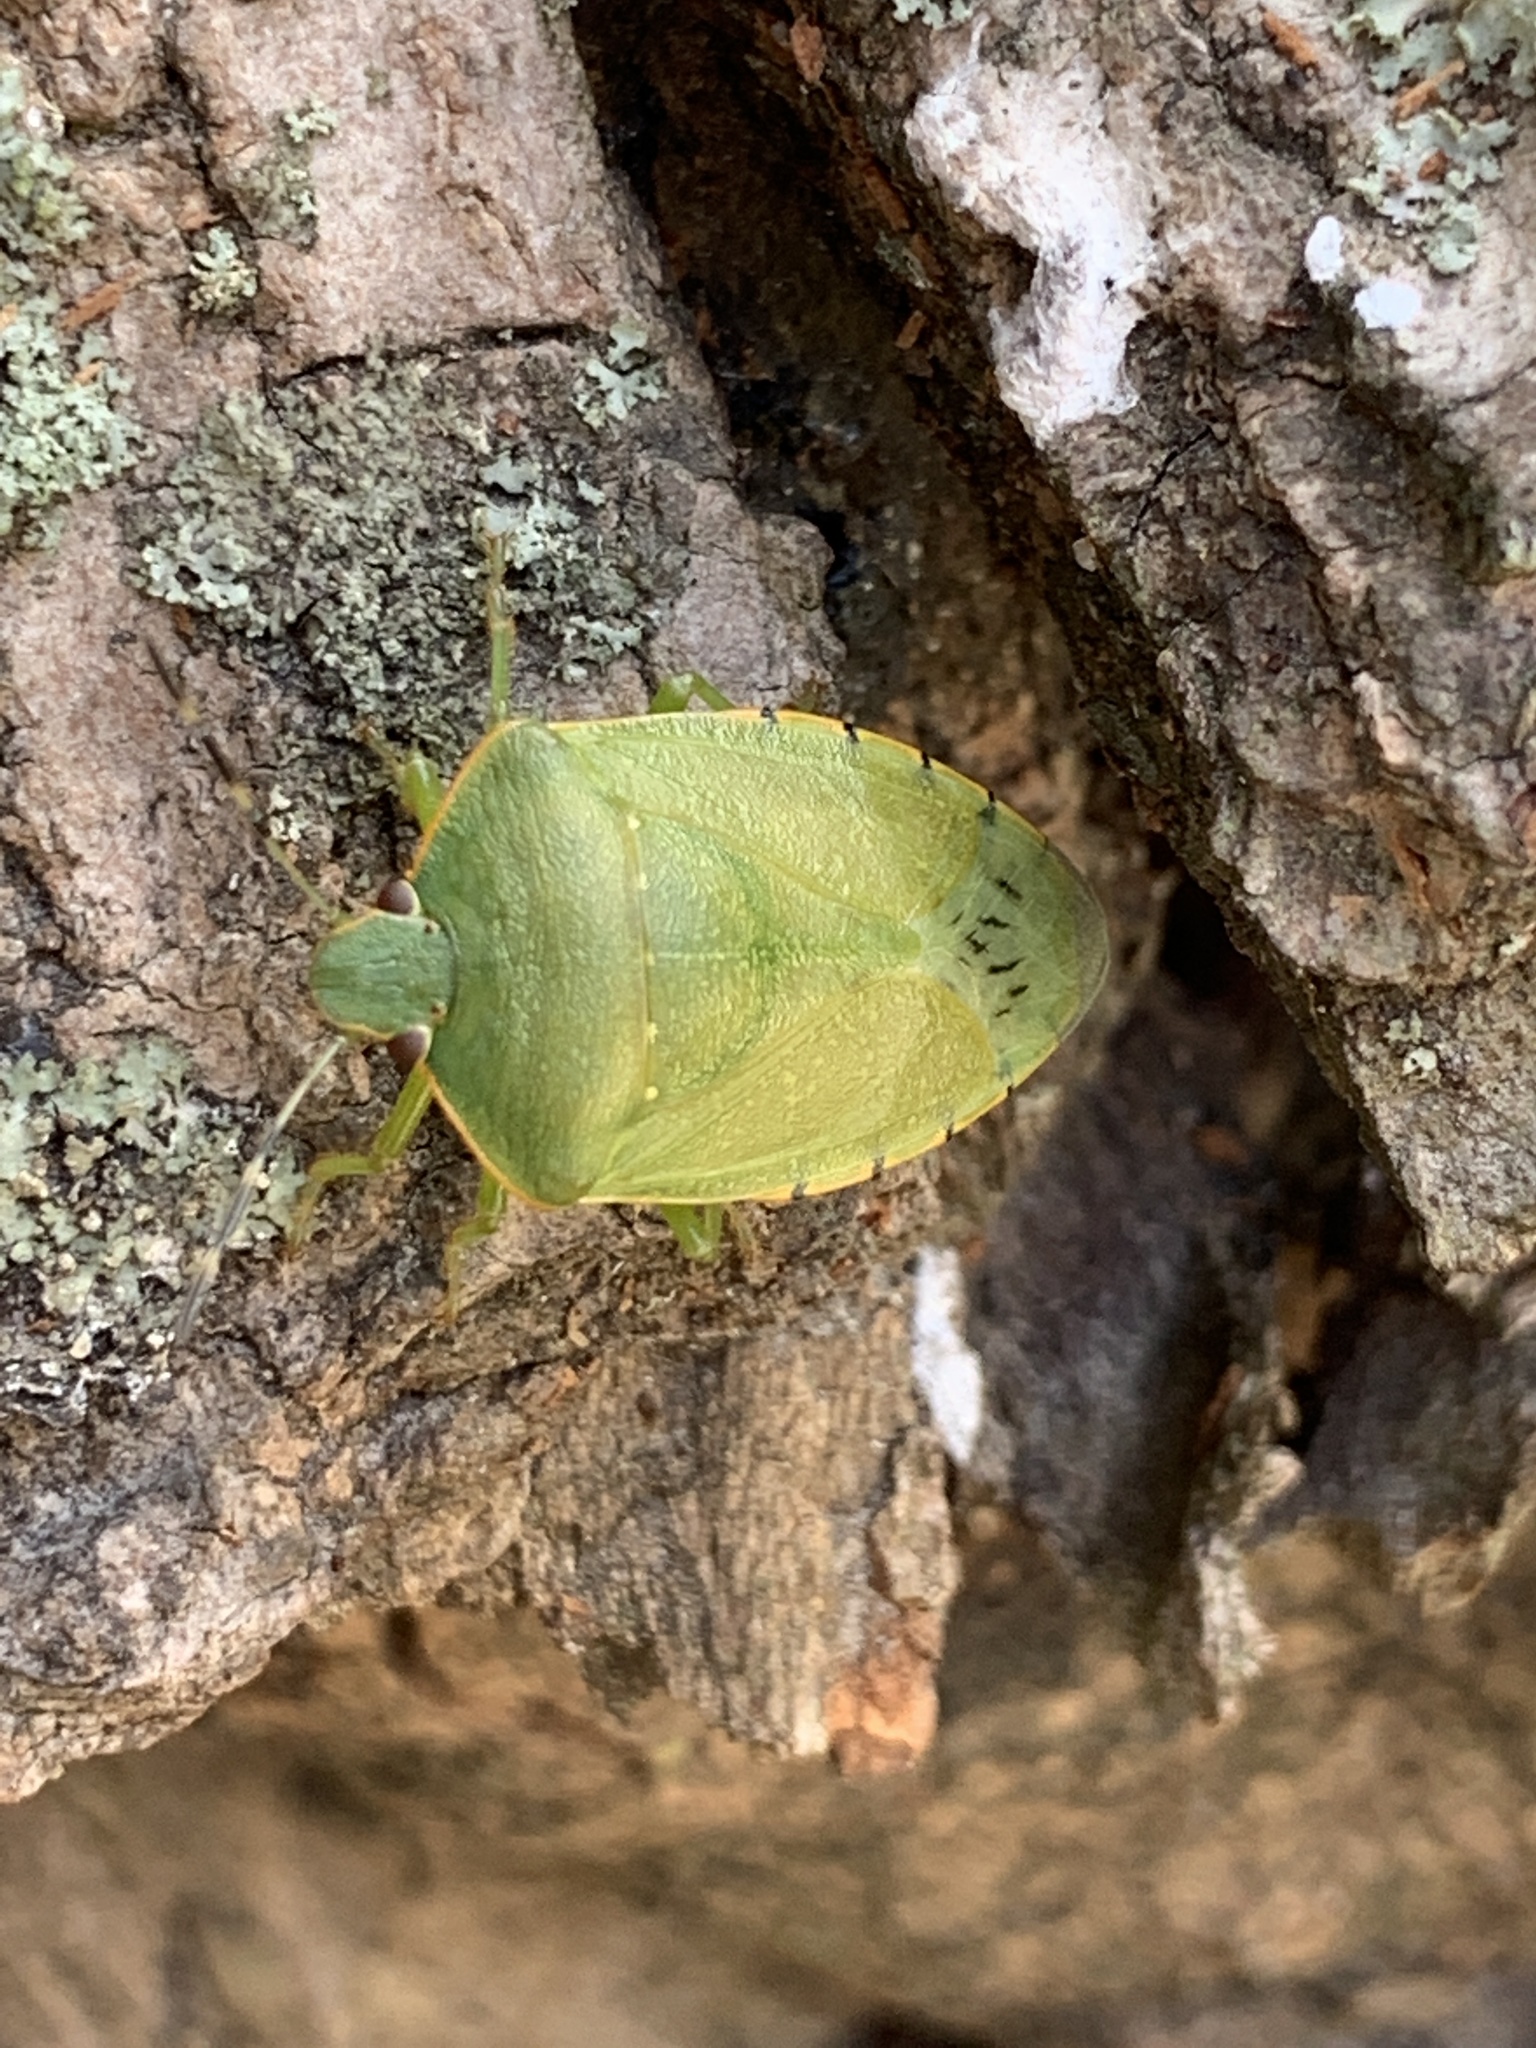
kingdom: Animalia
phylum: Arthropoda
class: Insecta
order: Hemiptera
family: Pentatomidae
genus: Chinavia
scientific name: Chinavia hilaris
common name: Green stink bug
